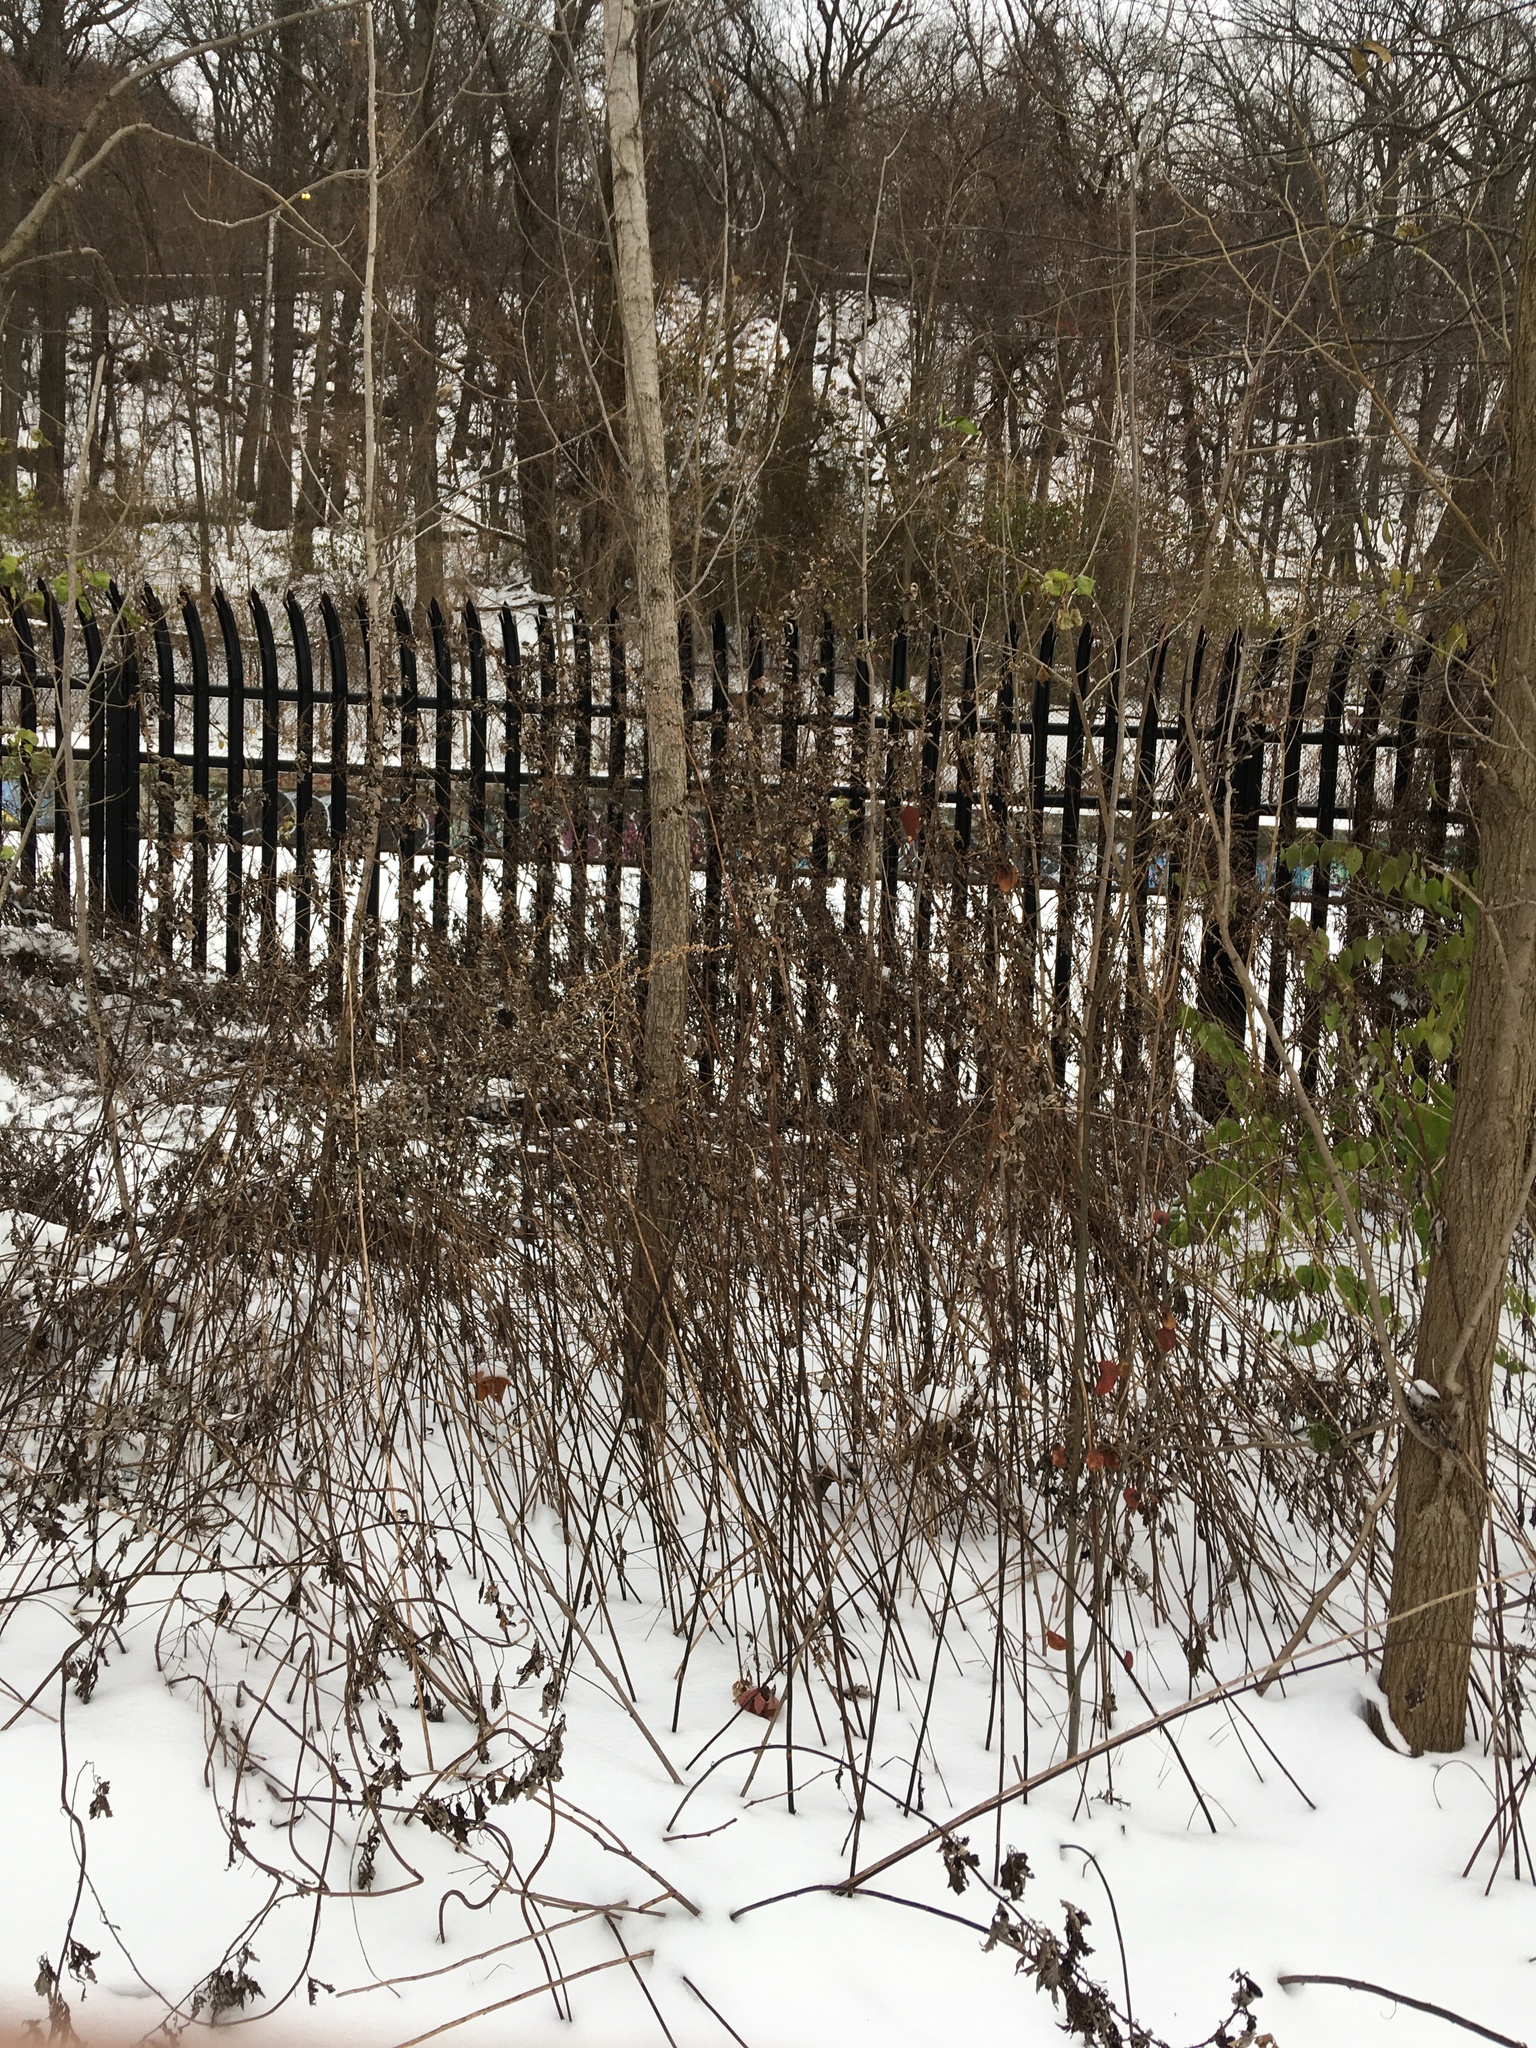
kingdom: Plantae
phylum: Tracheophyta
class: Magnoliopsida
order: Asterales
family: Asteraceae
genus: Artemisia
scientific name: Artemisia vulgaris
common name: Mugwort
